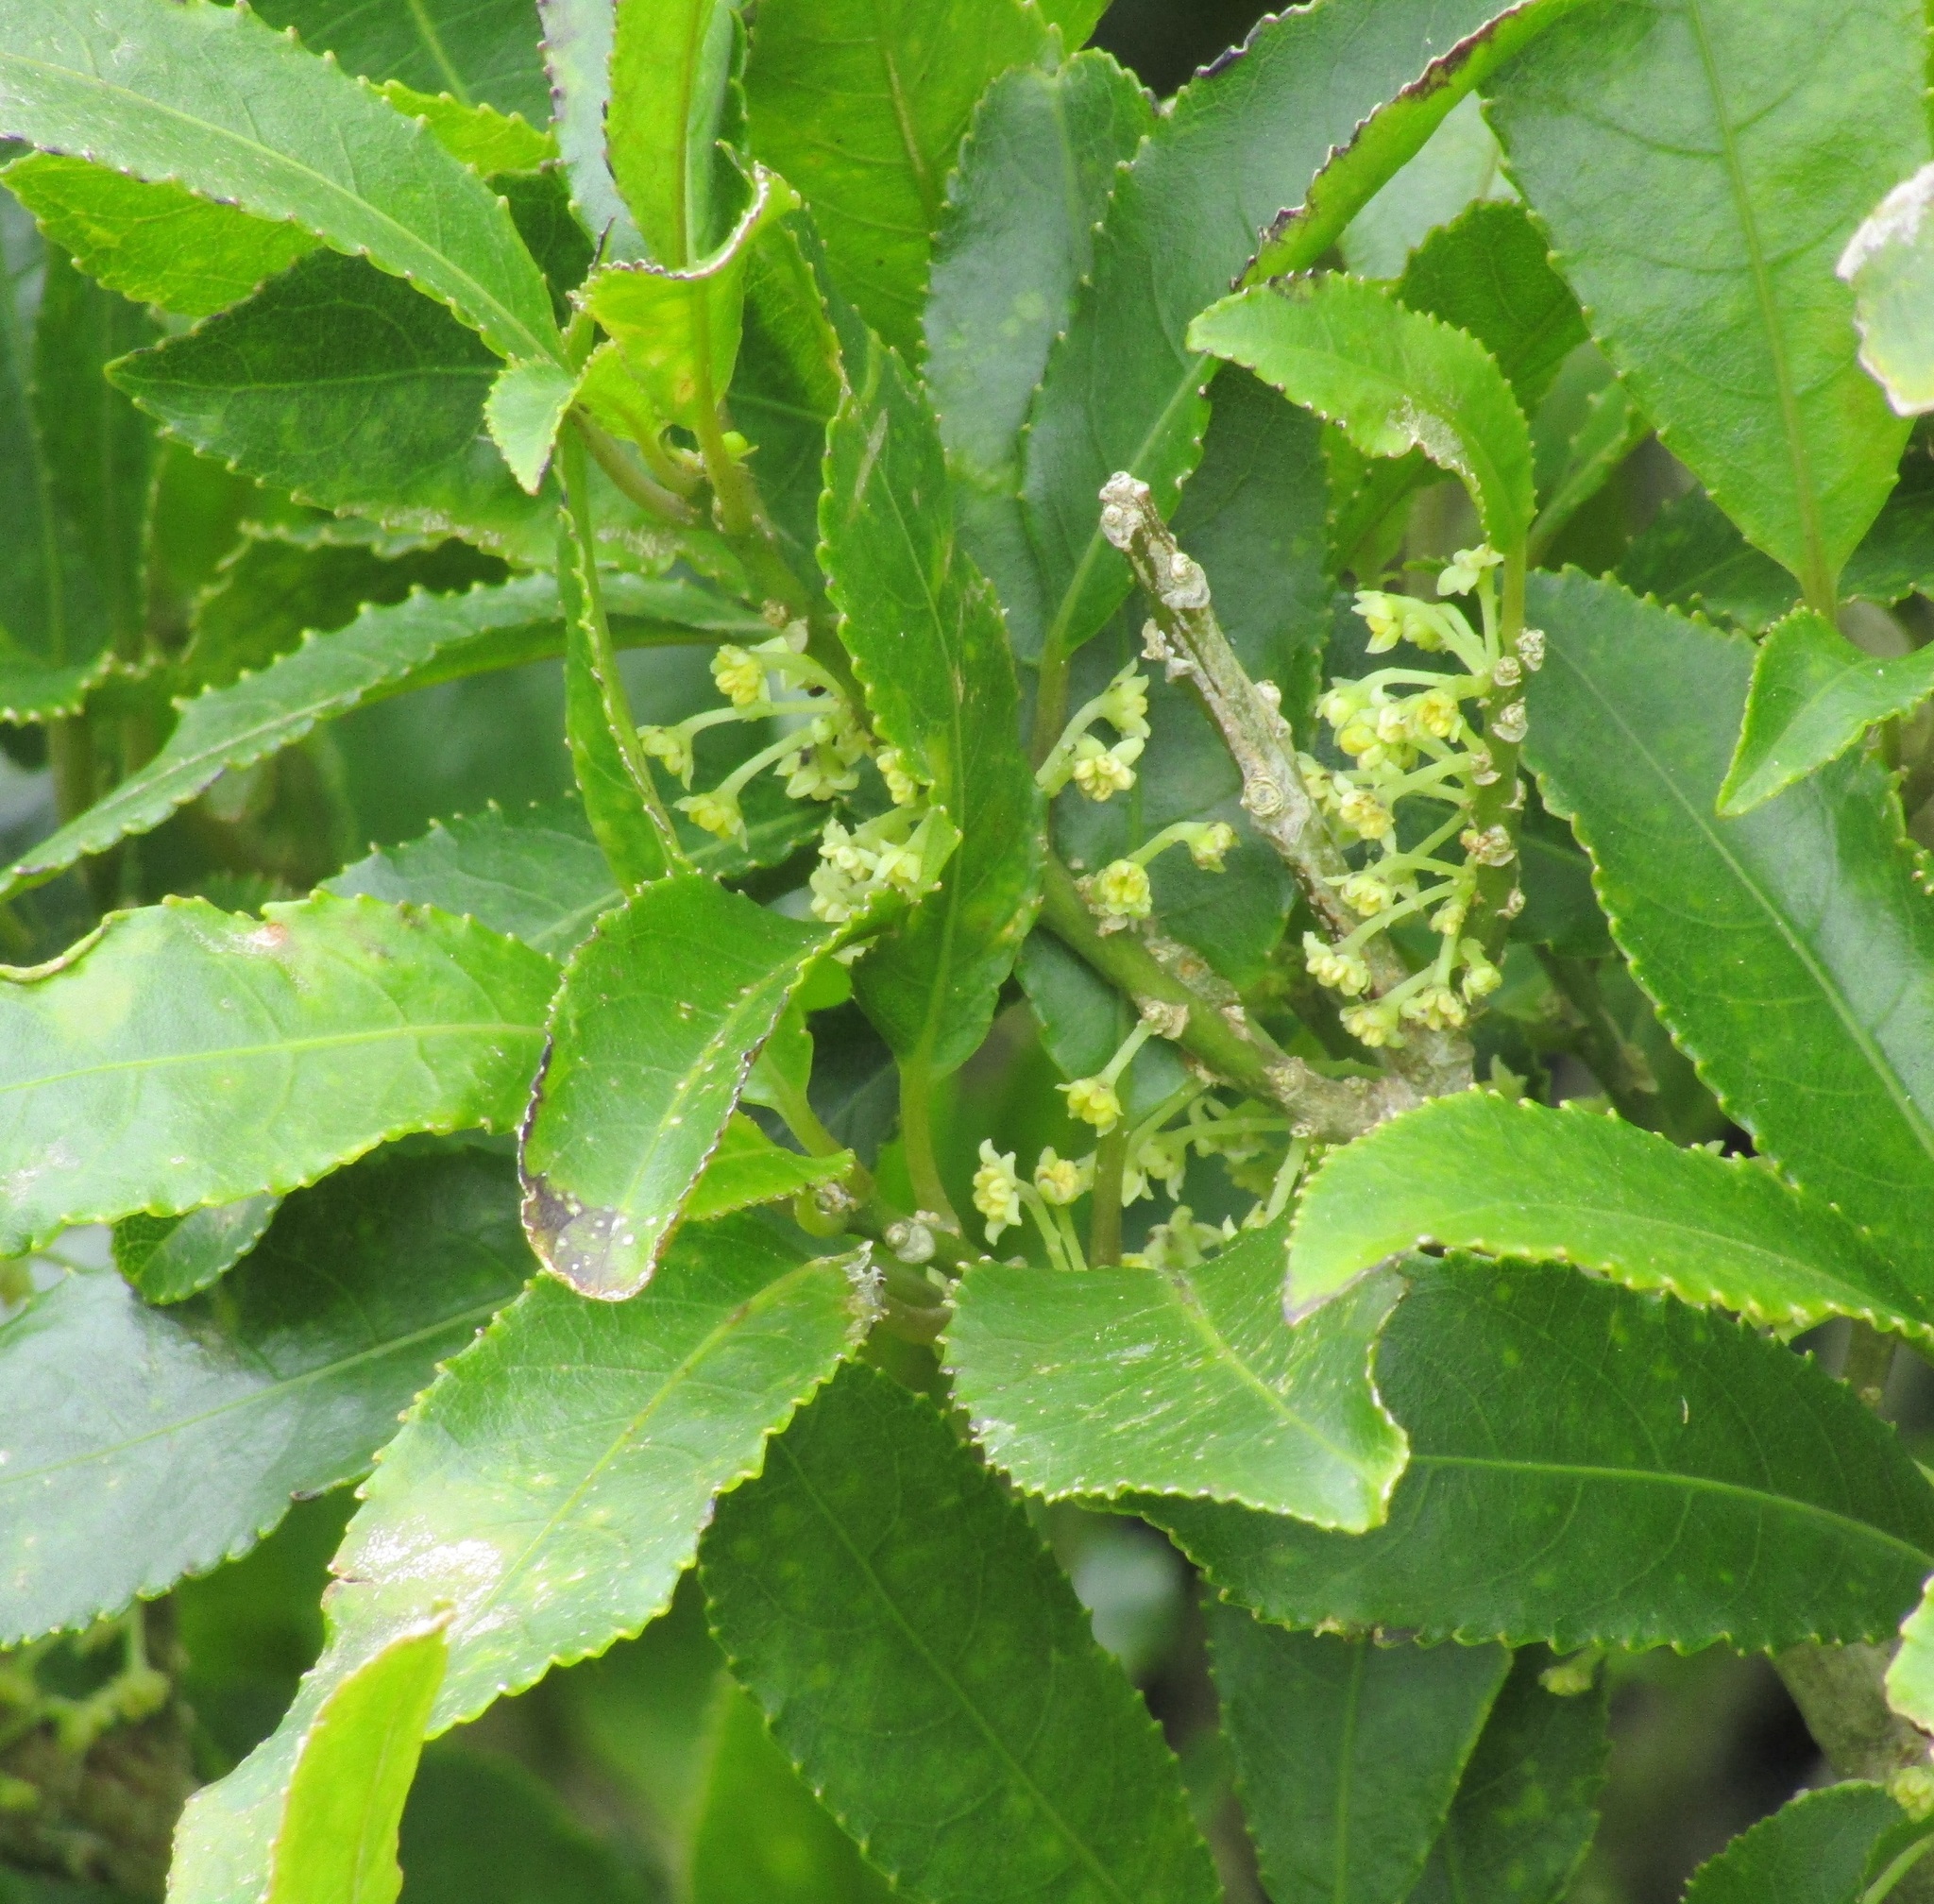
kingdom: Plantae
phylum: Tracheophyta
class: Magnoliopsida
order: Malpighiales
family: Violaceae
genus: Melicytus
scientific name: Melicytus ramiflorus
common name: Mahoe
